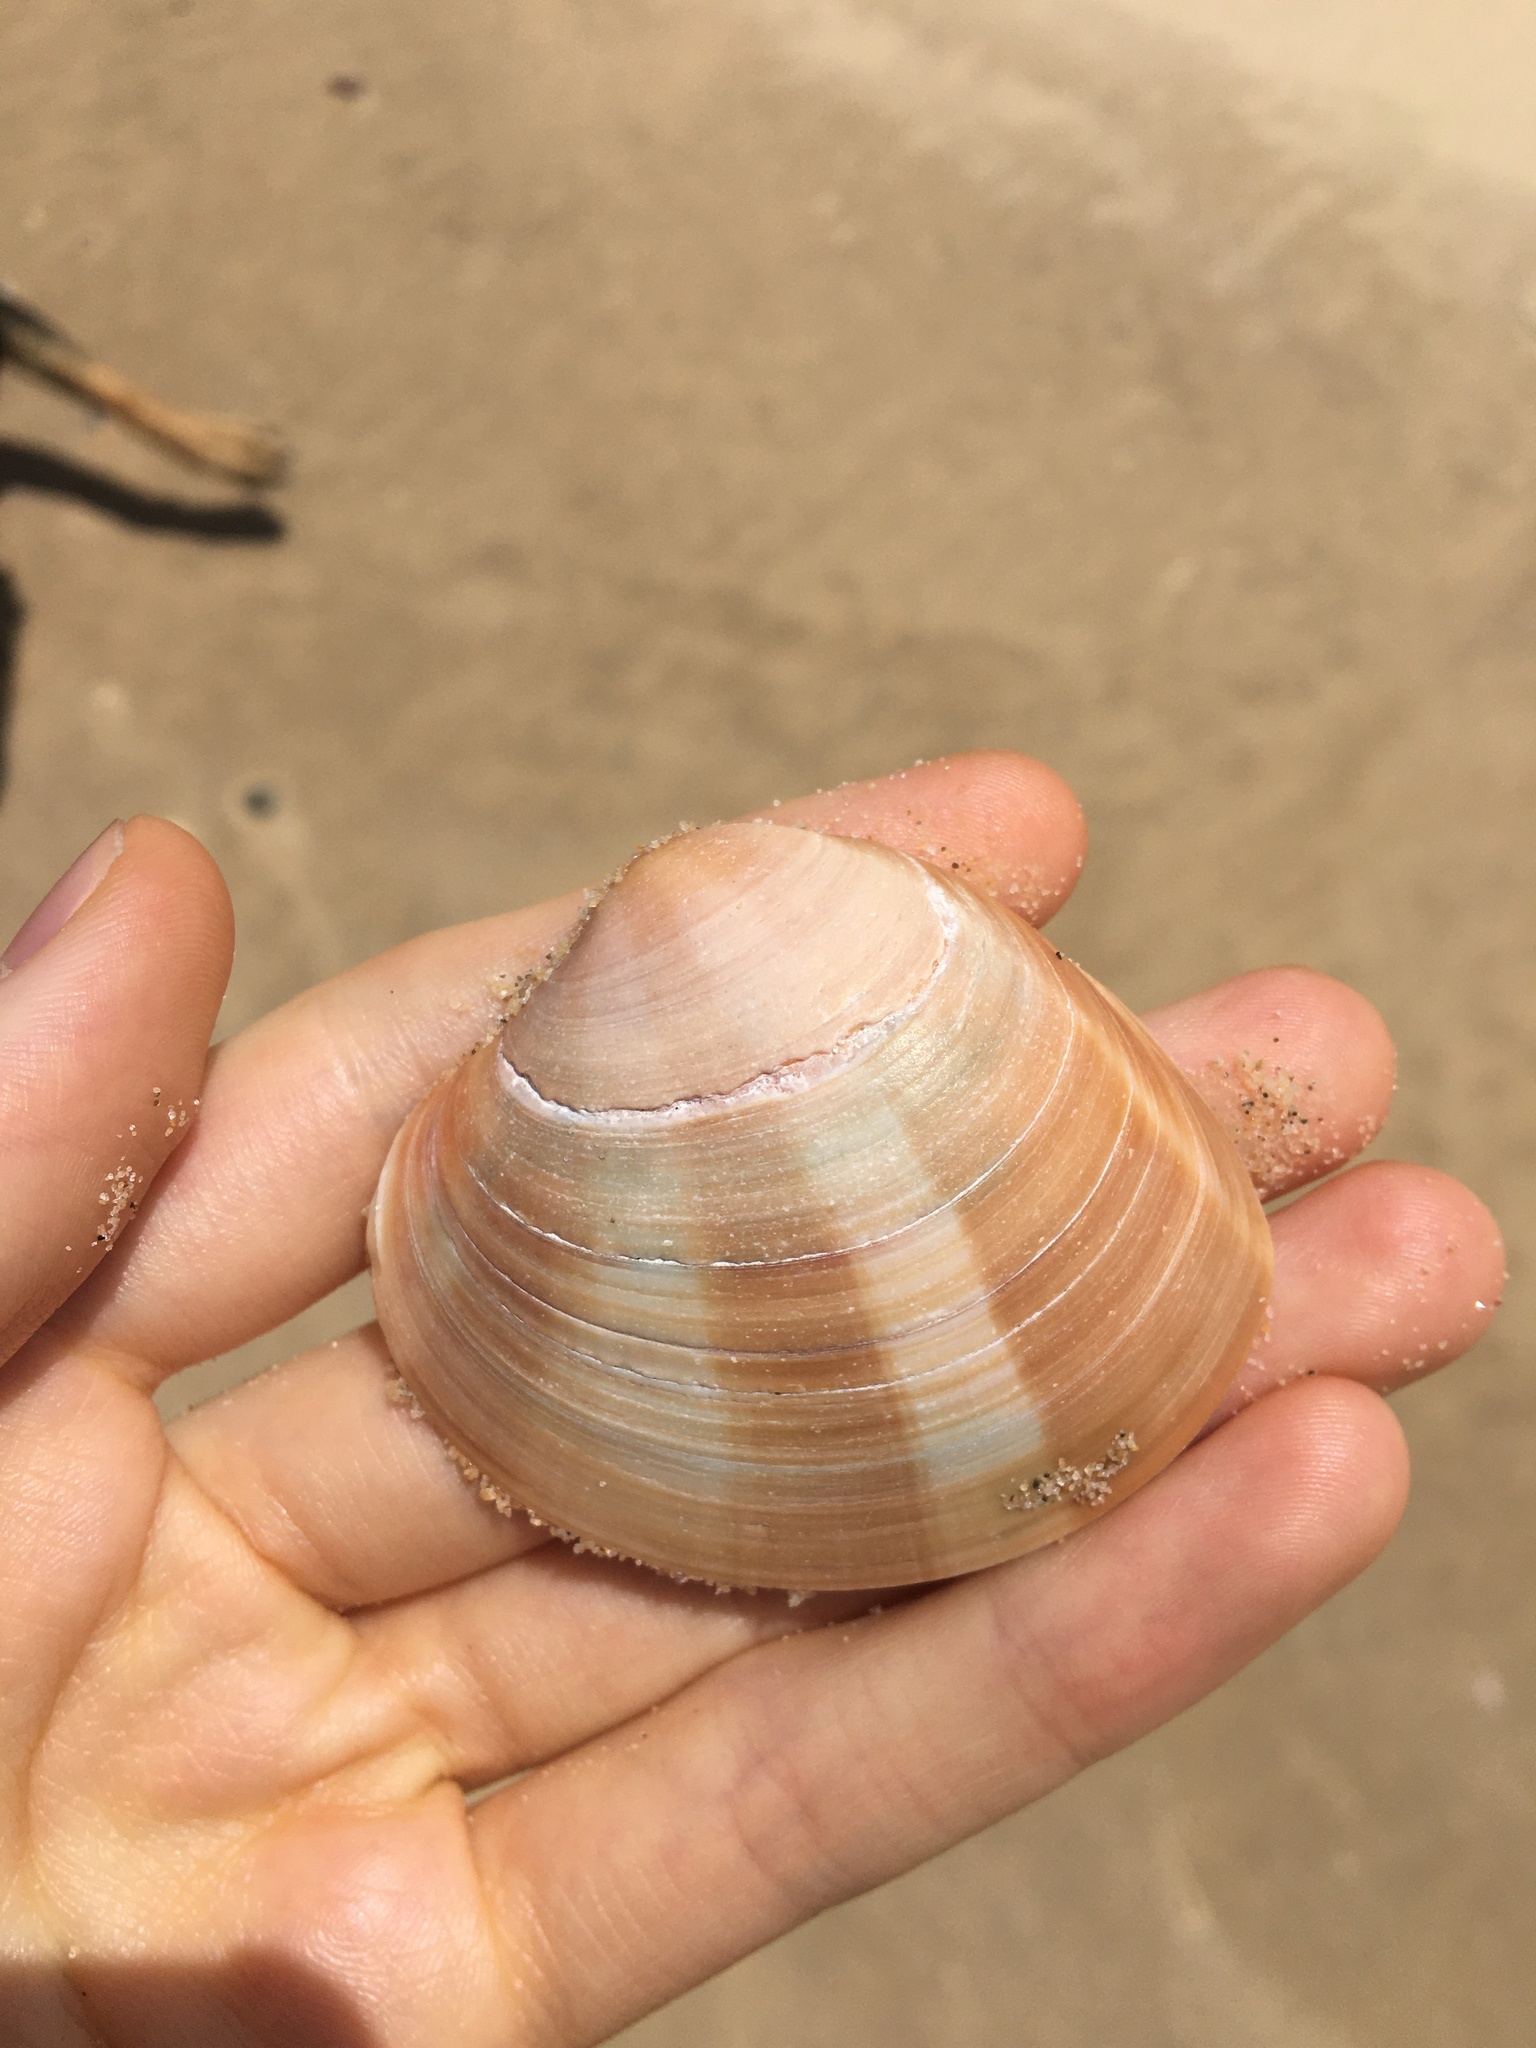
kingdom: Animalia
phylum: Mollusca
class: Bivalvia
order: Venerida
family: Veneridae
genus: Bassina
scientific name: Bassina pachyphylla
